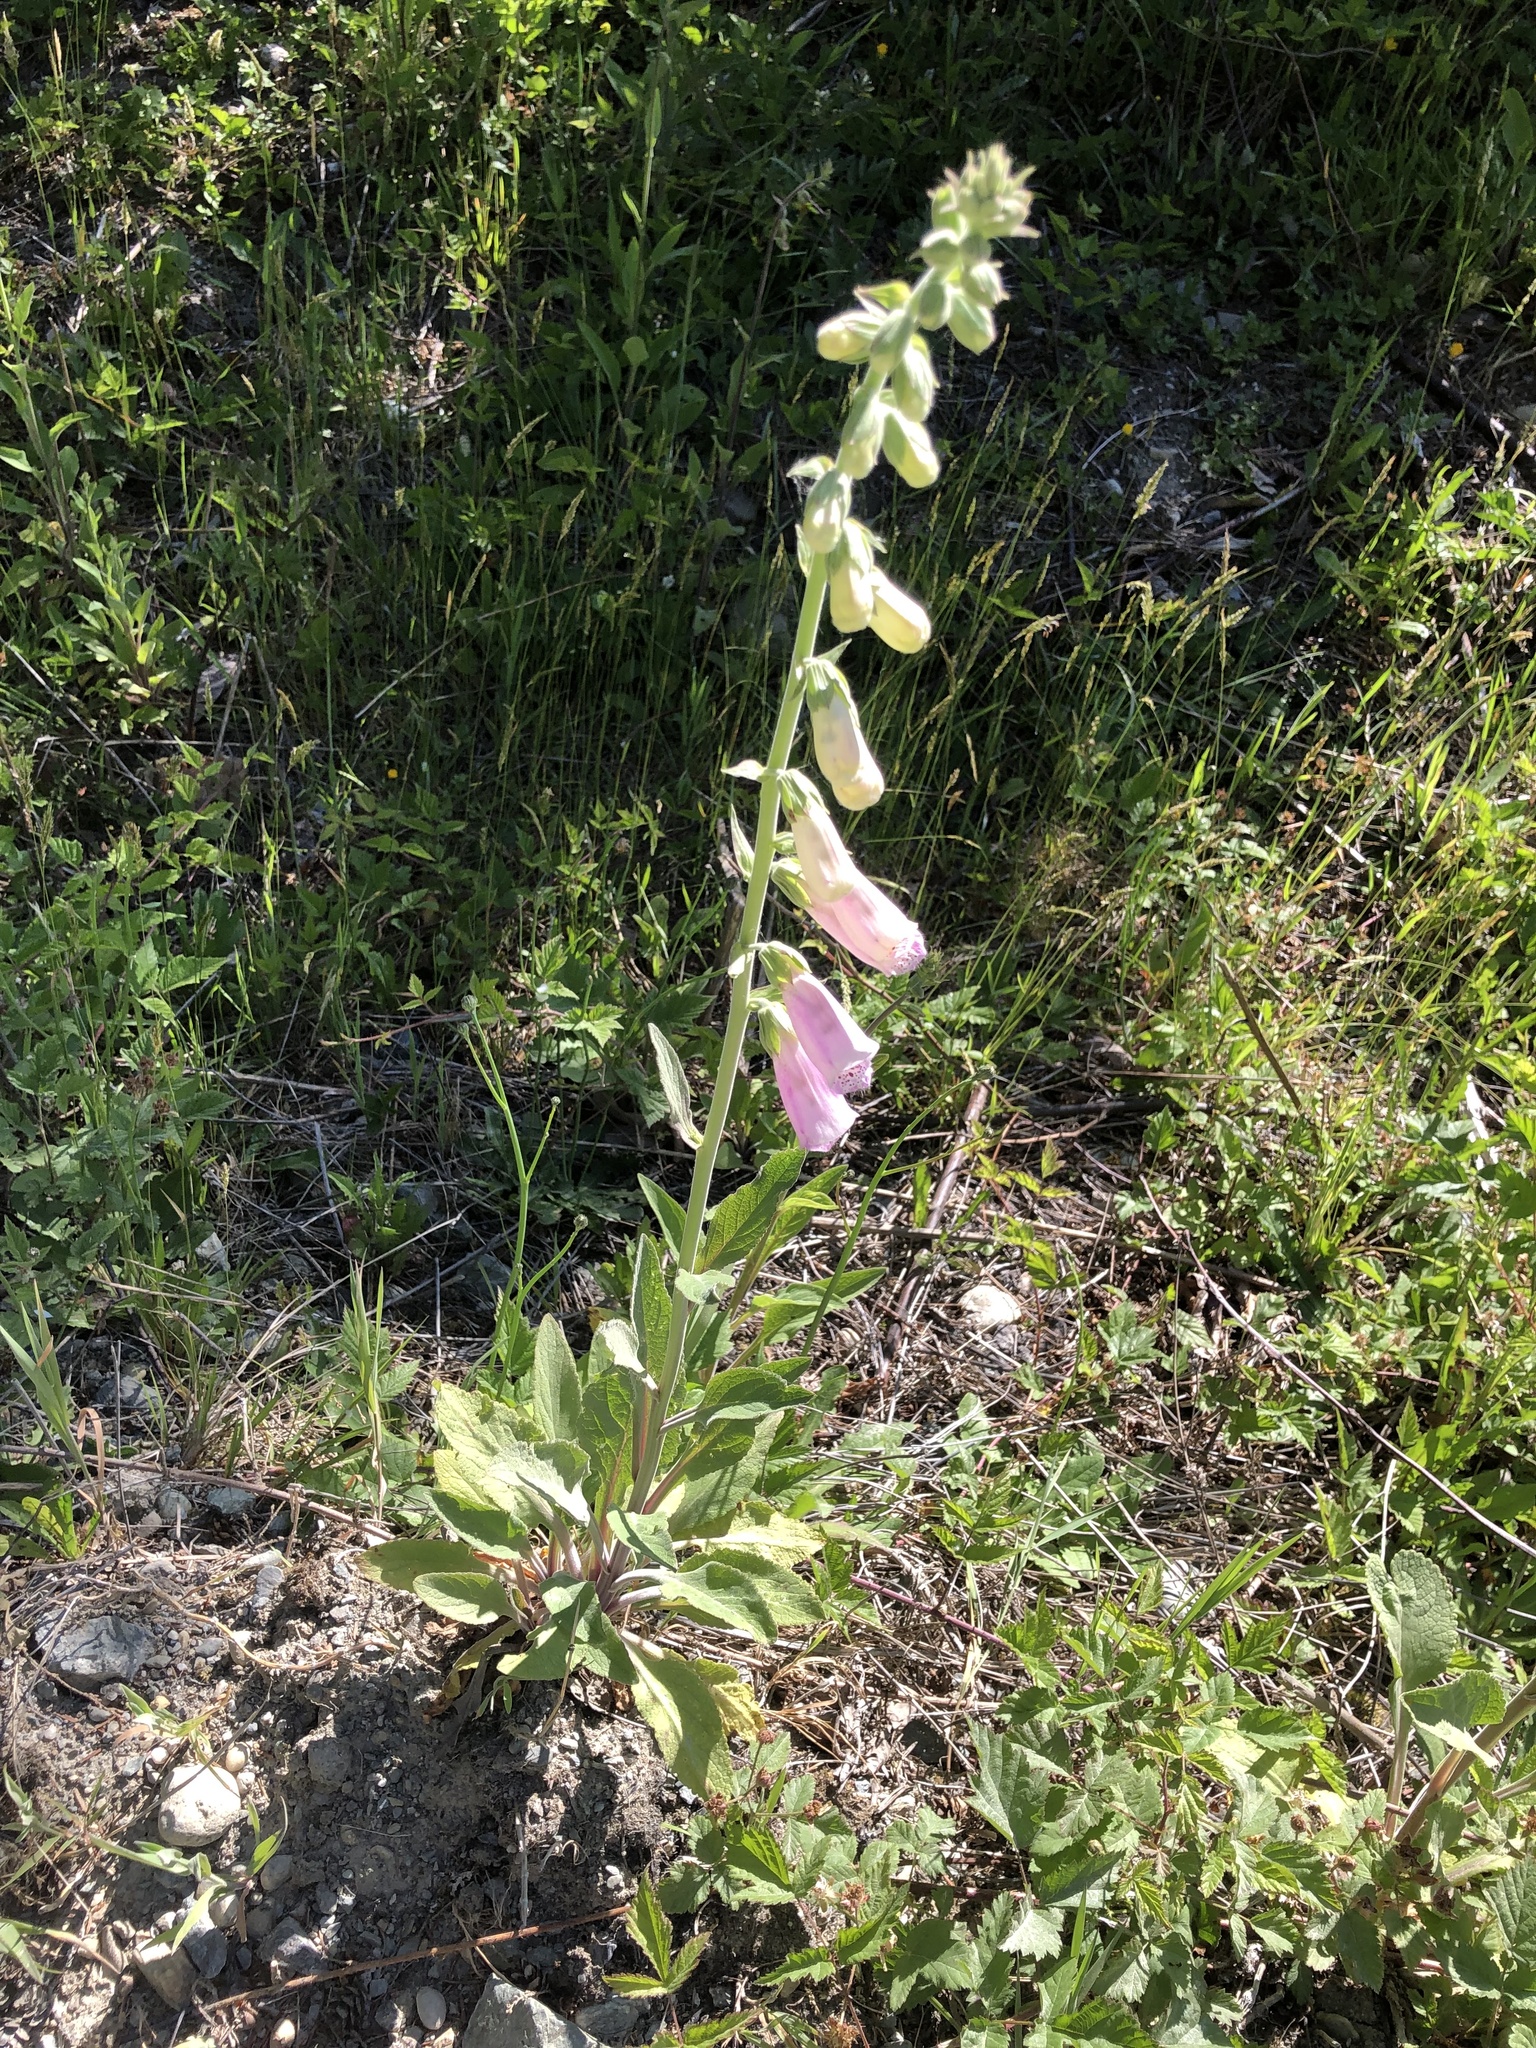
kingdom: Plantae
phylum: Tracheophyta
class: Magnoliopsida
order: Lamiales
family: Plantaginaceae
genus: Digitalis
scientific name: Digitalis purpurea
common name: Foxglove
